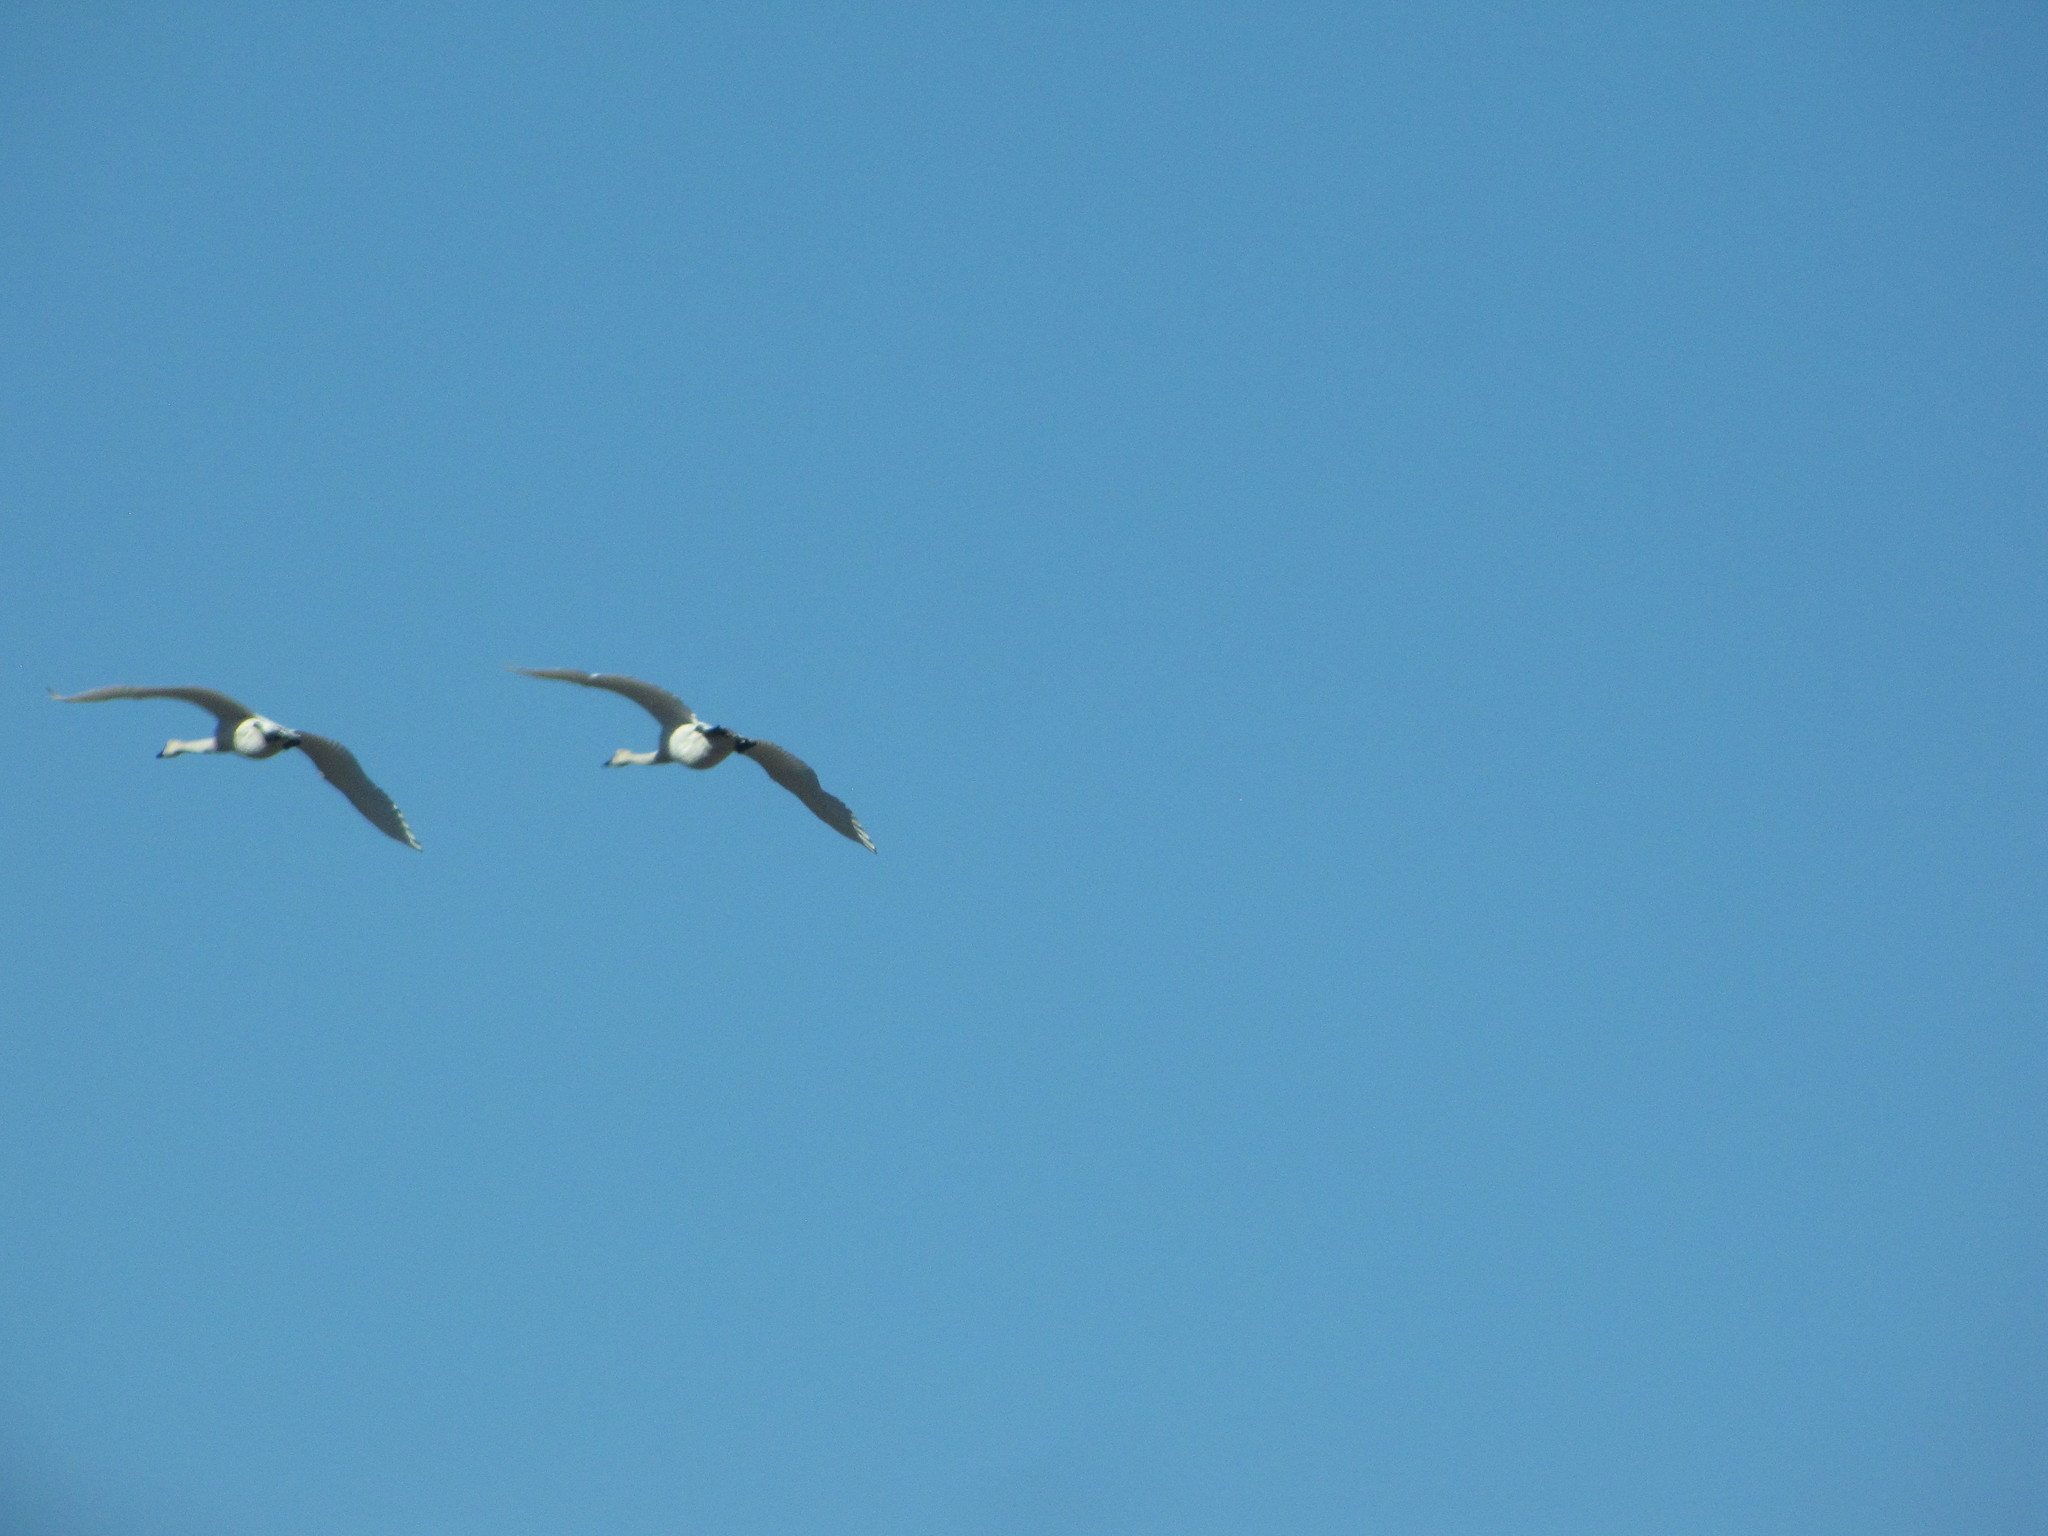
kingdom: Animalia
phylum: Chordata
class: Aves
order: Anseriformes
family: Anatidae
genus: Cygnus
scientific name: Cygnus buccinator
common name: Trumpeter swan
